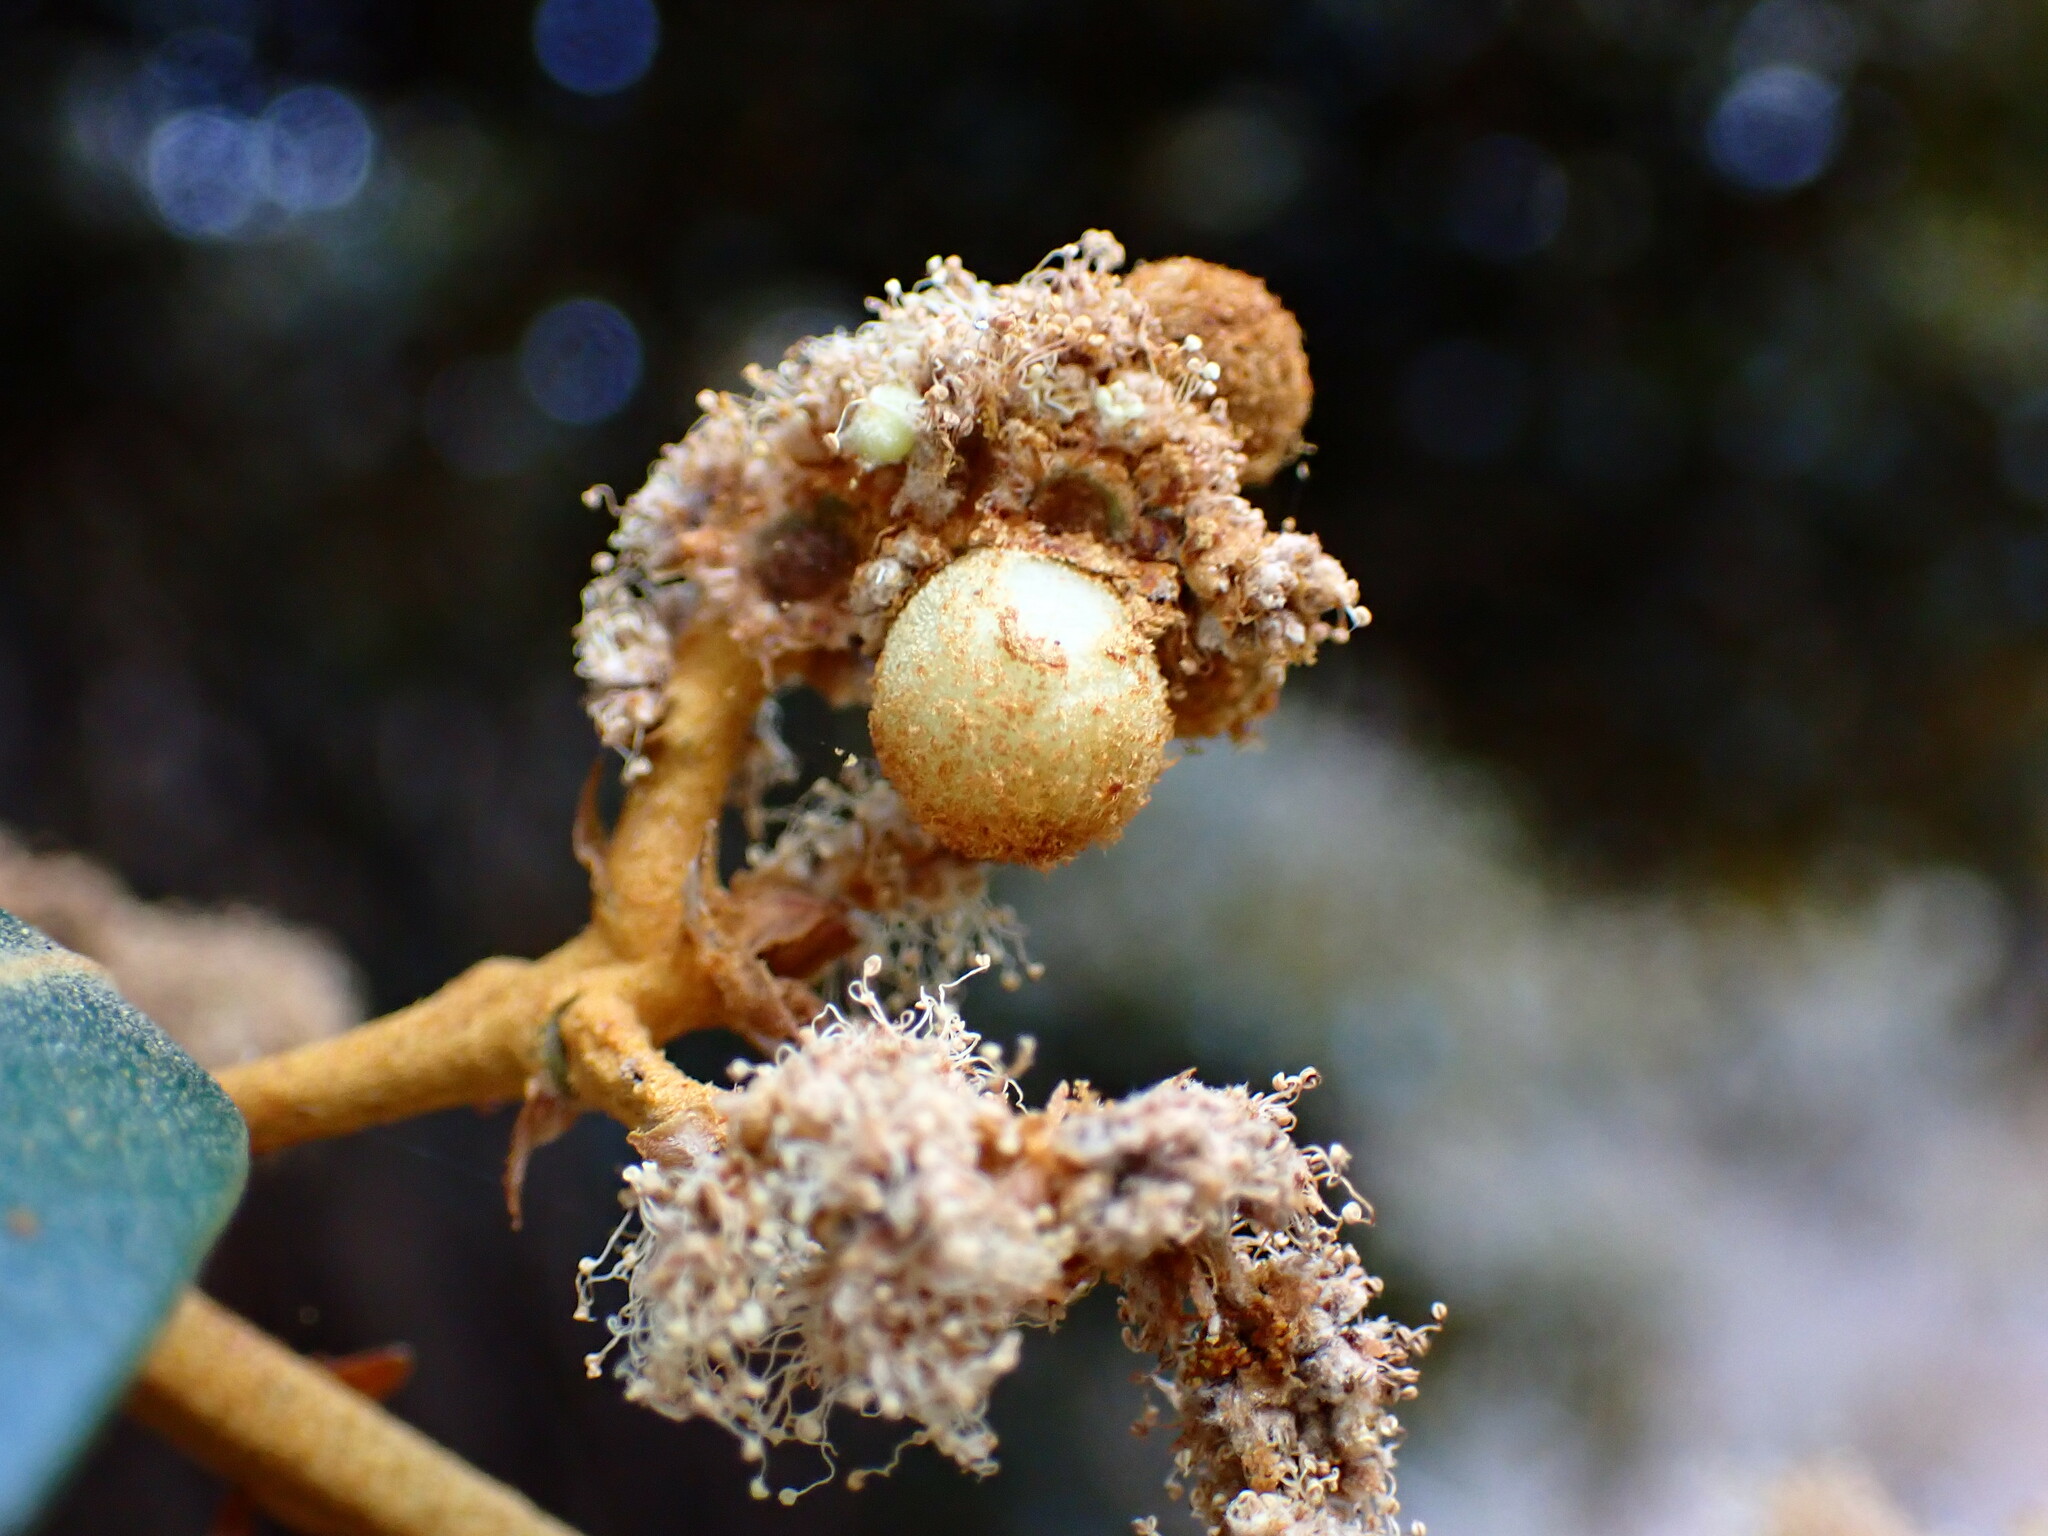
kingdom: Animalia
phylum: Arthropoda
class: Insecta
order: Hymenoptera
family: Cynipidae
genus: Synergus
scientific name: Synergus castanopsidis
